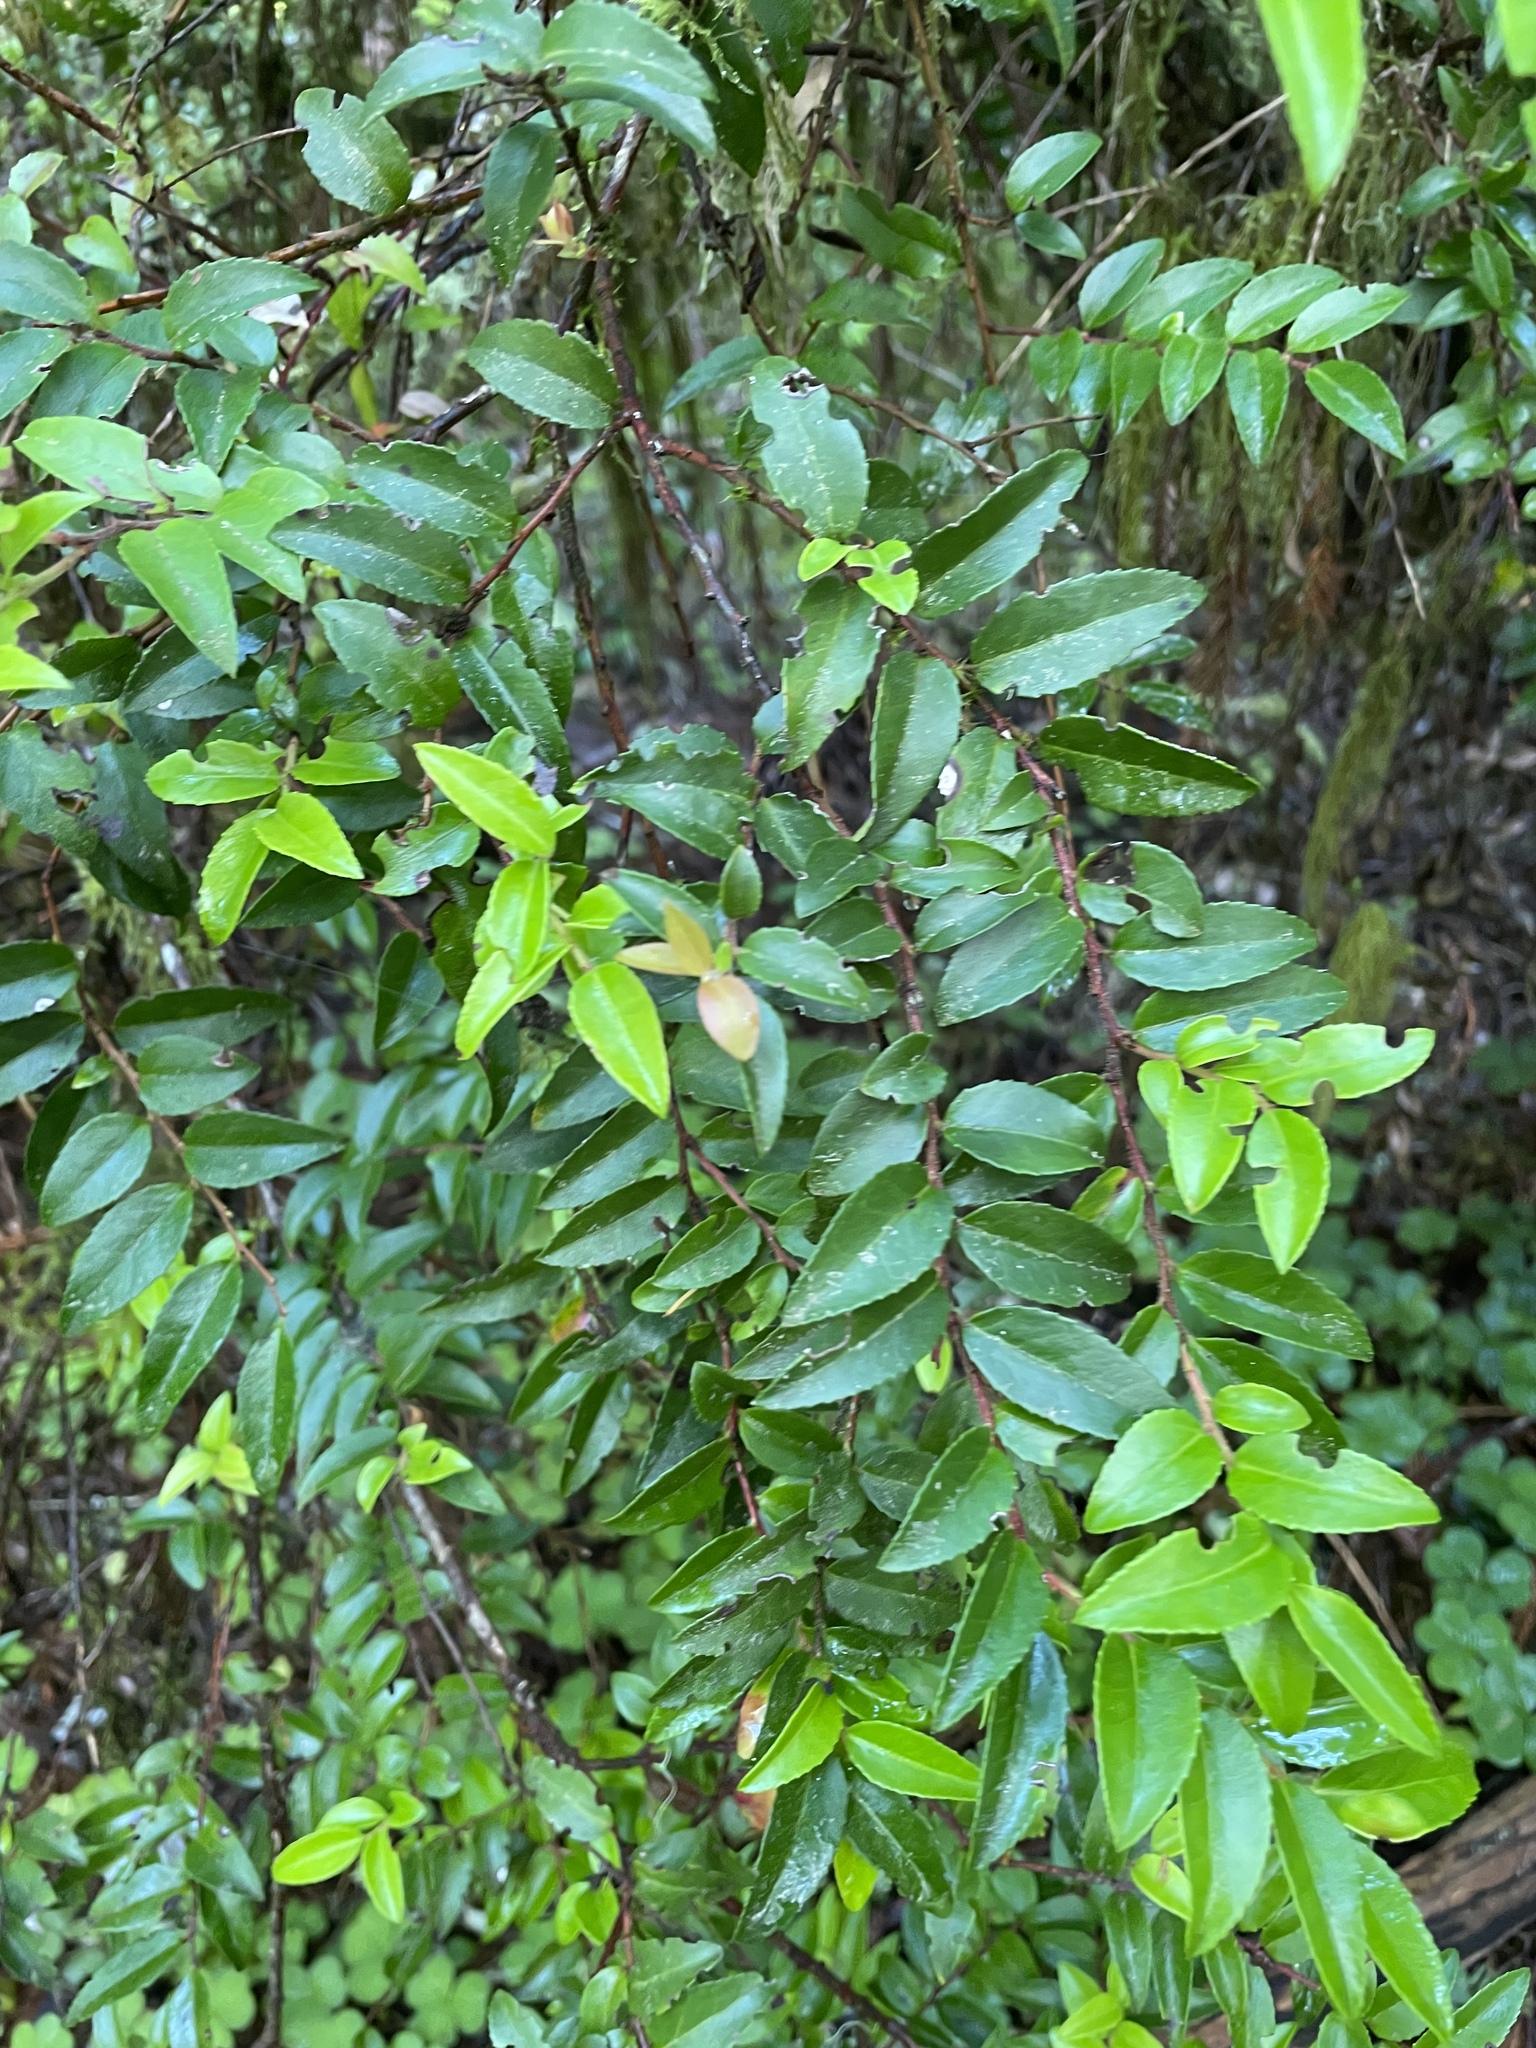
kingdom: Plantae
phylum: Tracheophyta
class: Magnoliopsida
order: Ericales
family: Ericaceae
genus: Vaccinium
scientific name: Vaccinium ovatum
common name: California-huckleberry
